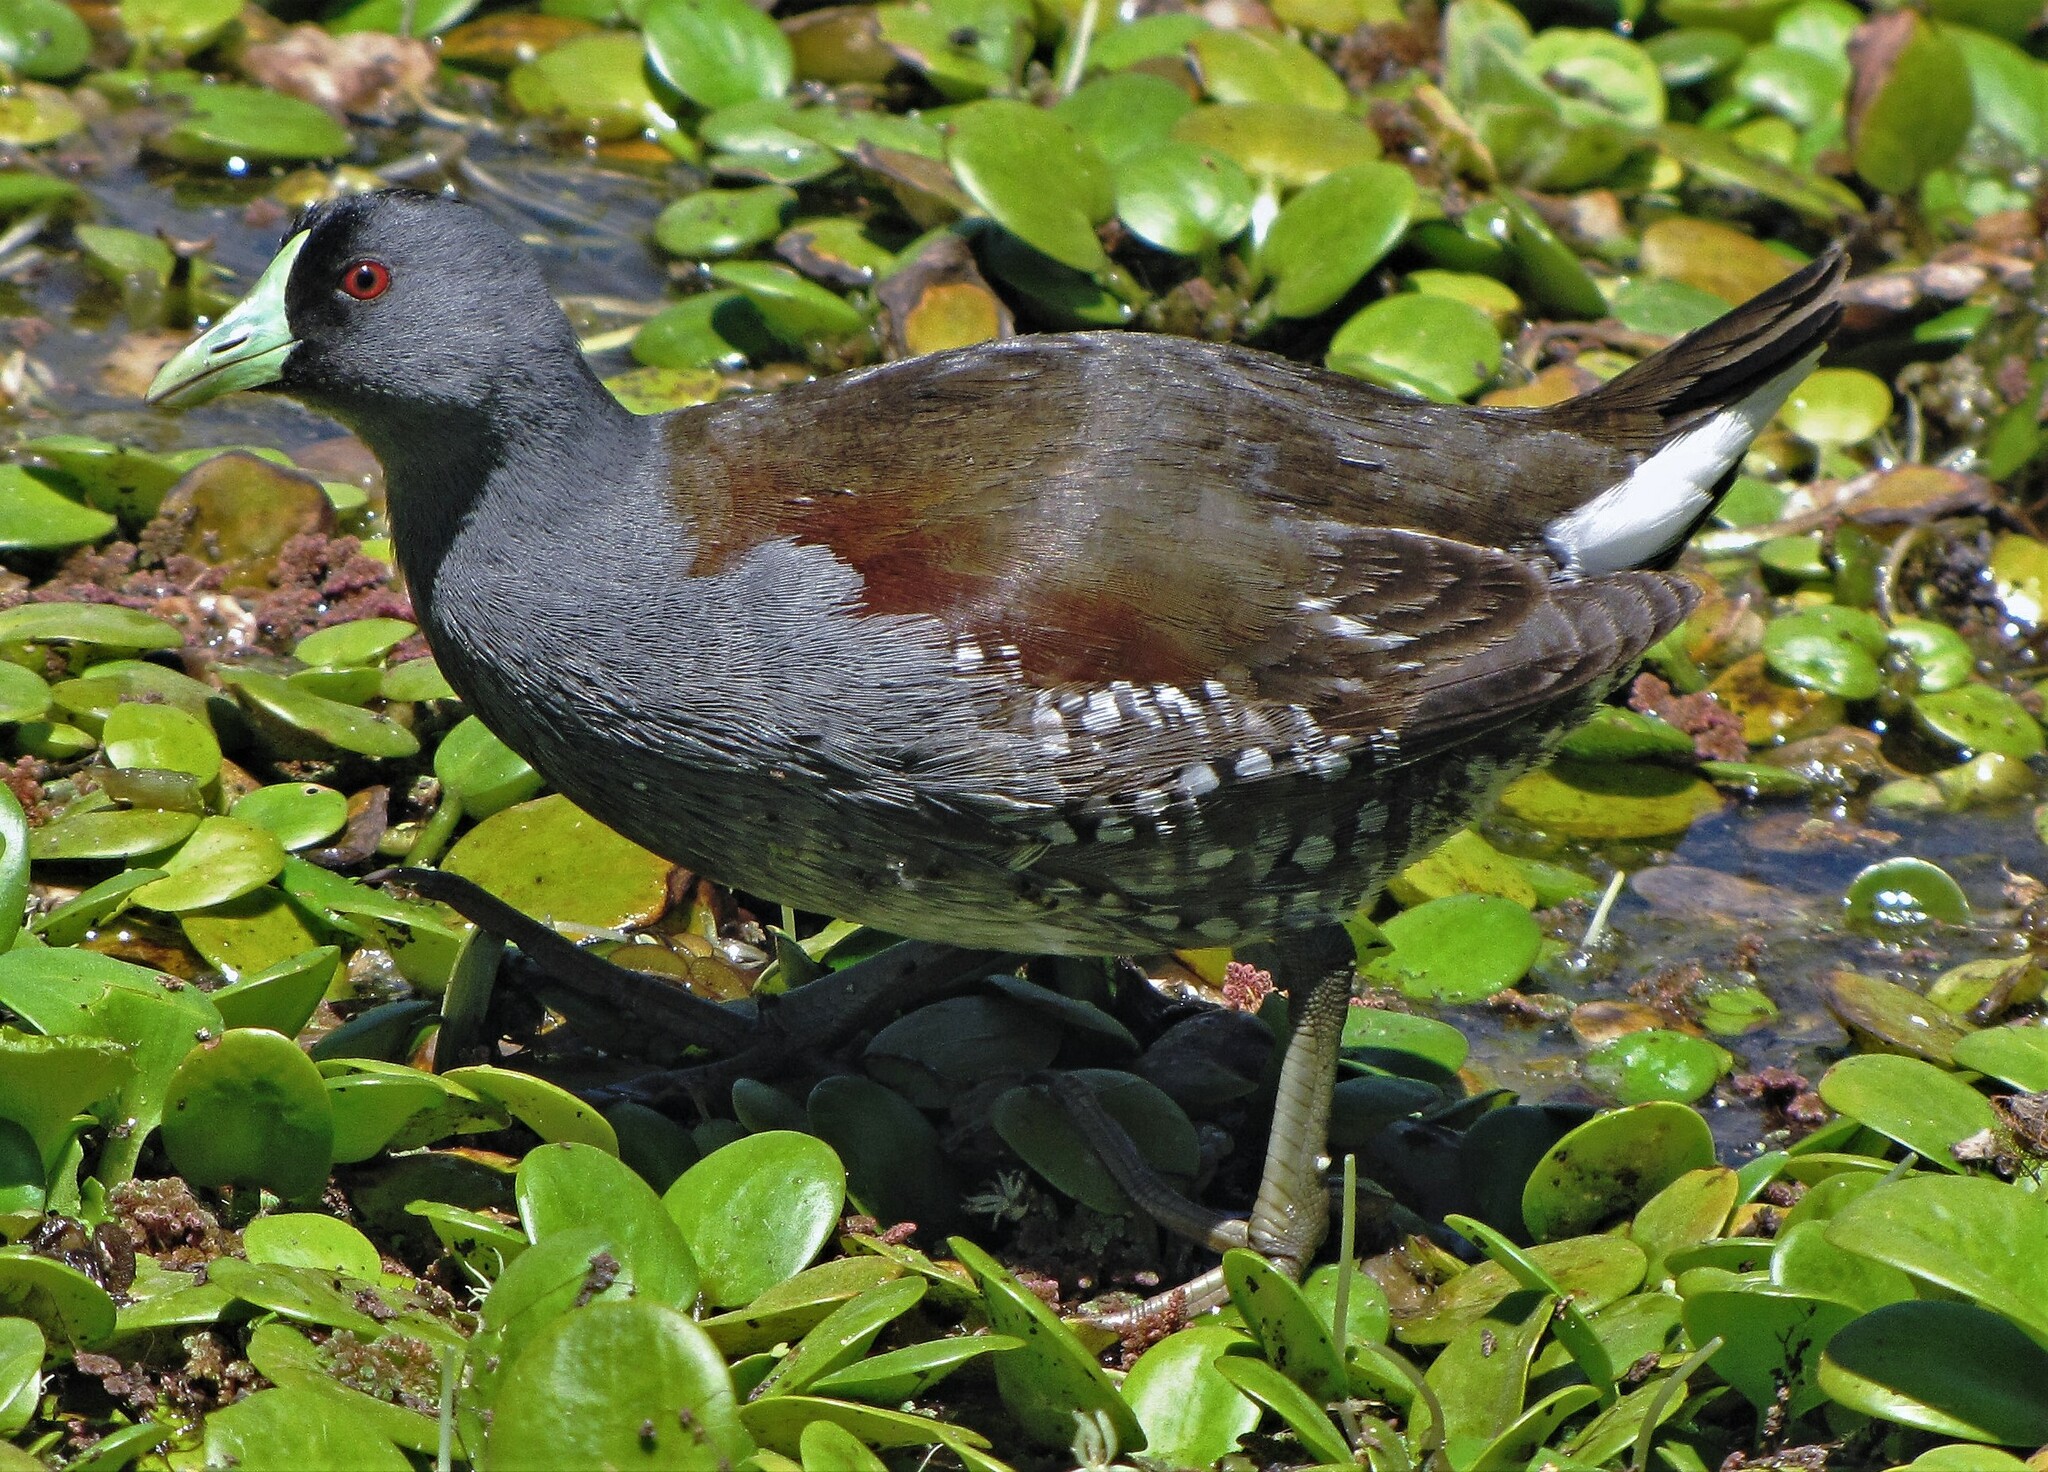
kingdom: Animalia
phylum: Chordata
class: Aves
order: Gruiformes
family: Rallidae
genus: Gallinula
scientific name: Gallinula melanops
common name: Spot-flanked gallinule
